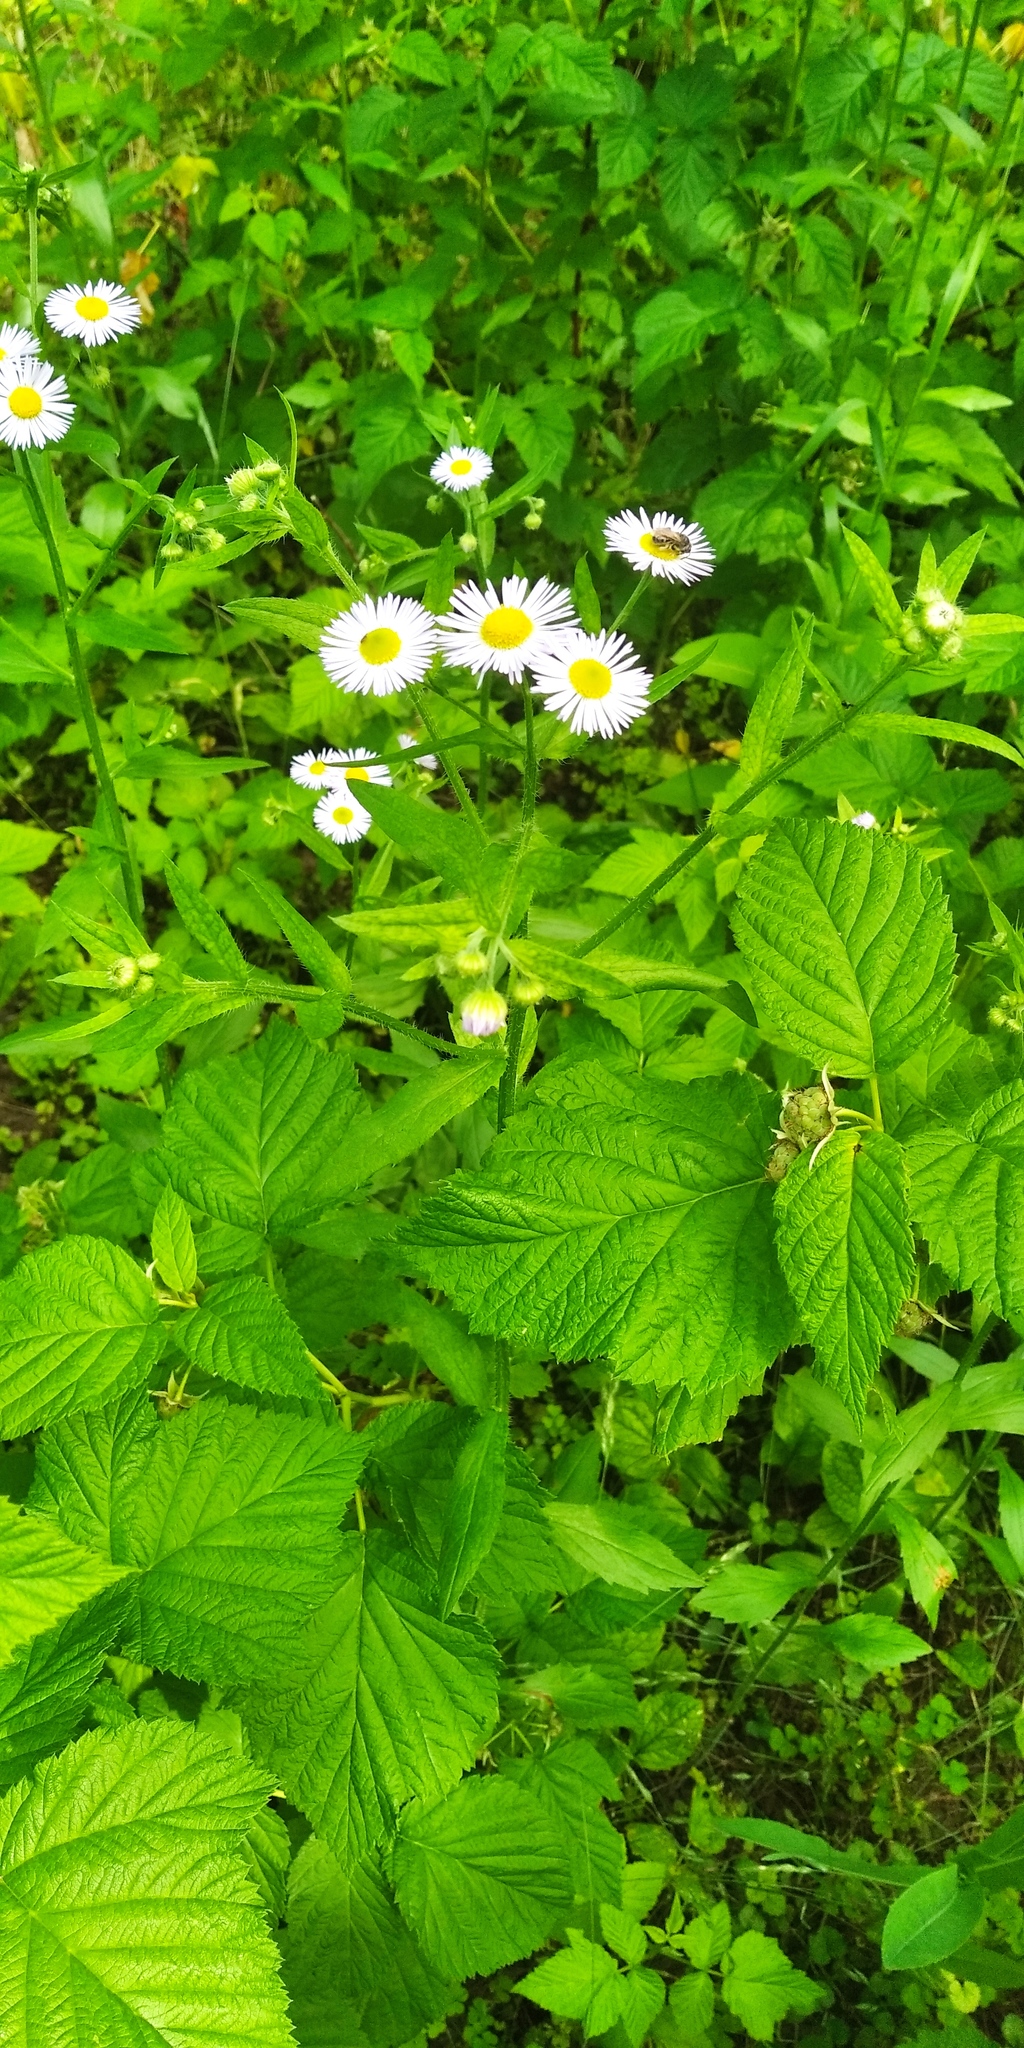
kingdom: Plantae
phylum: Tracheophyta
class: Magnoliopsida
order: Asterales
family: Asteraceae
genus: Erigeron
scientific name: Erigeron annuus
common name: Tall fleabane
